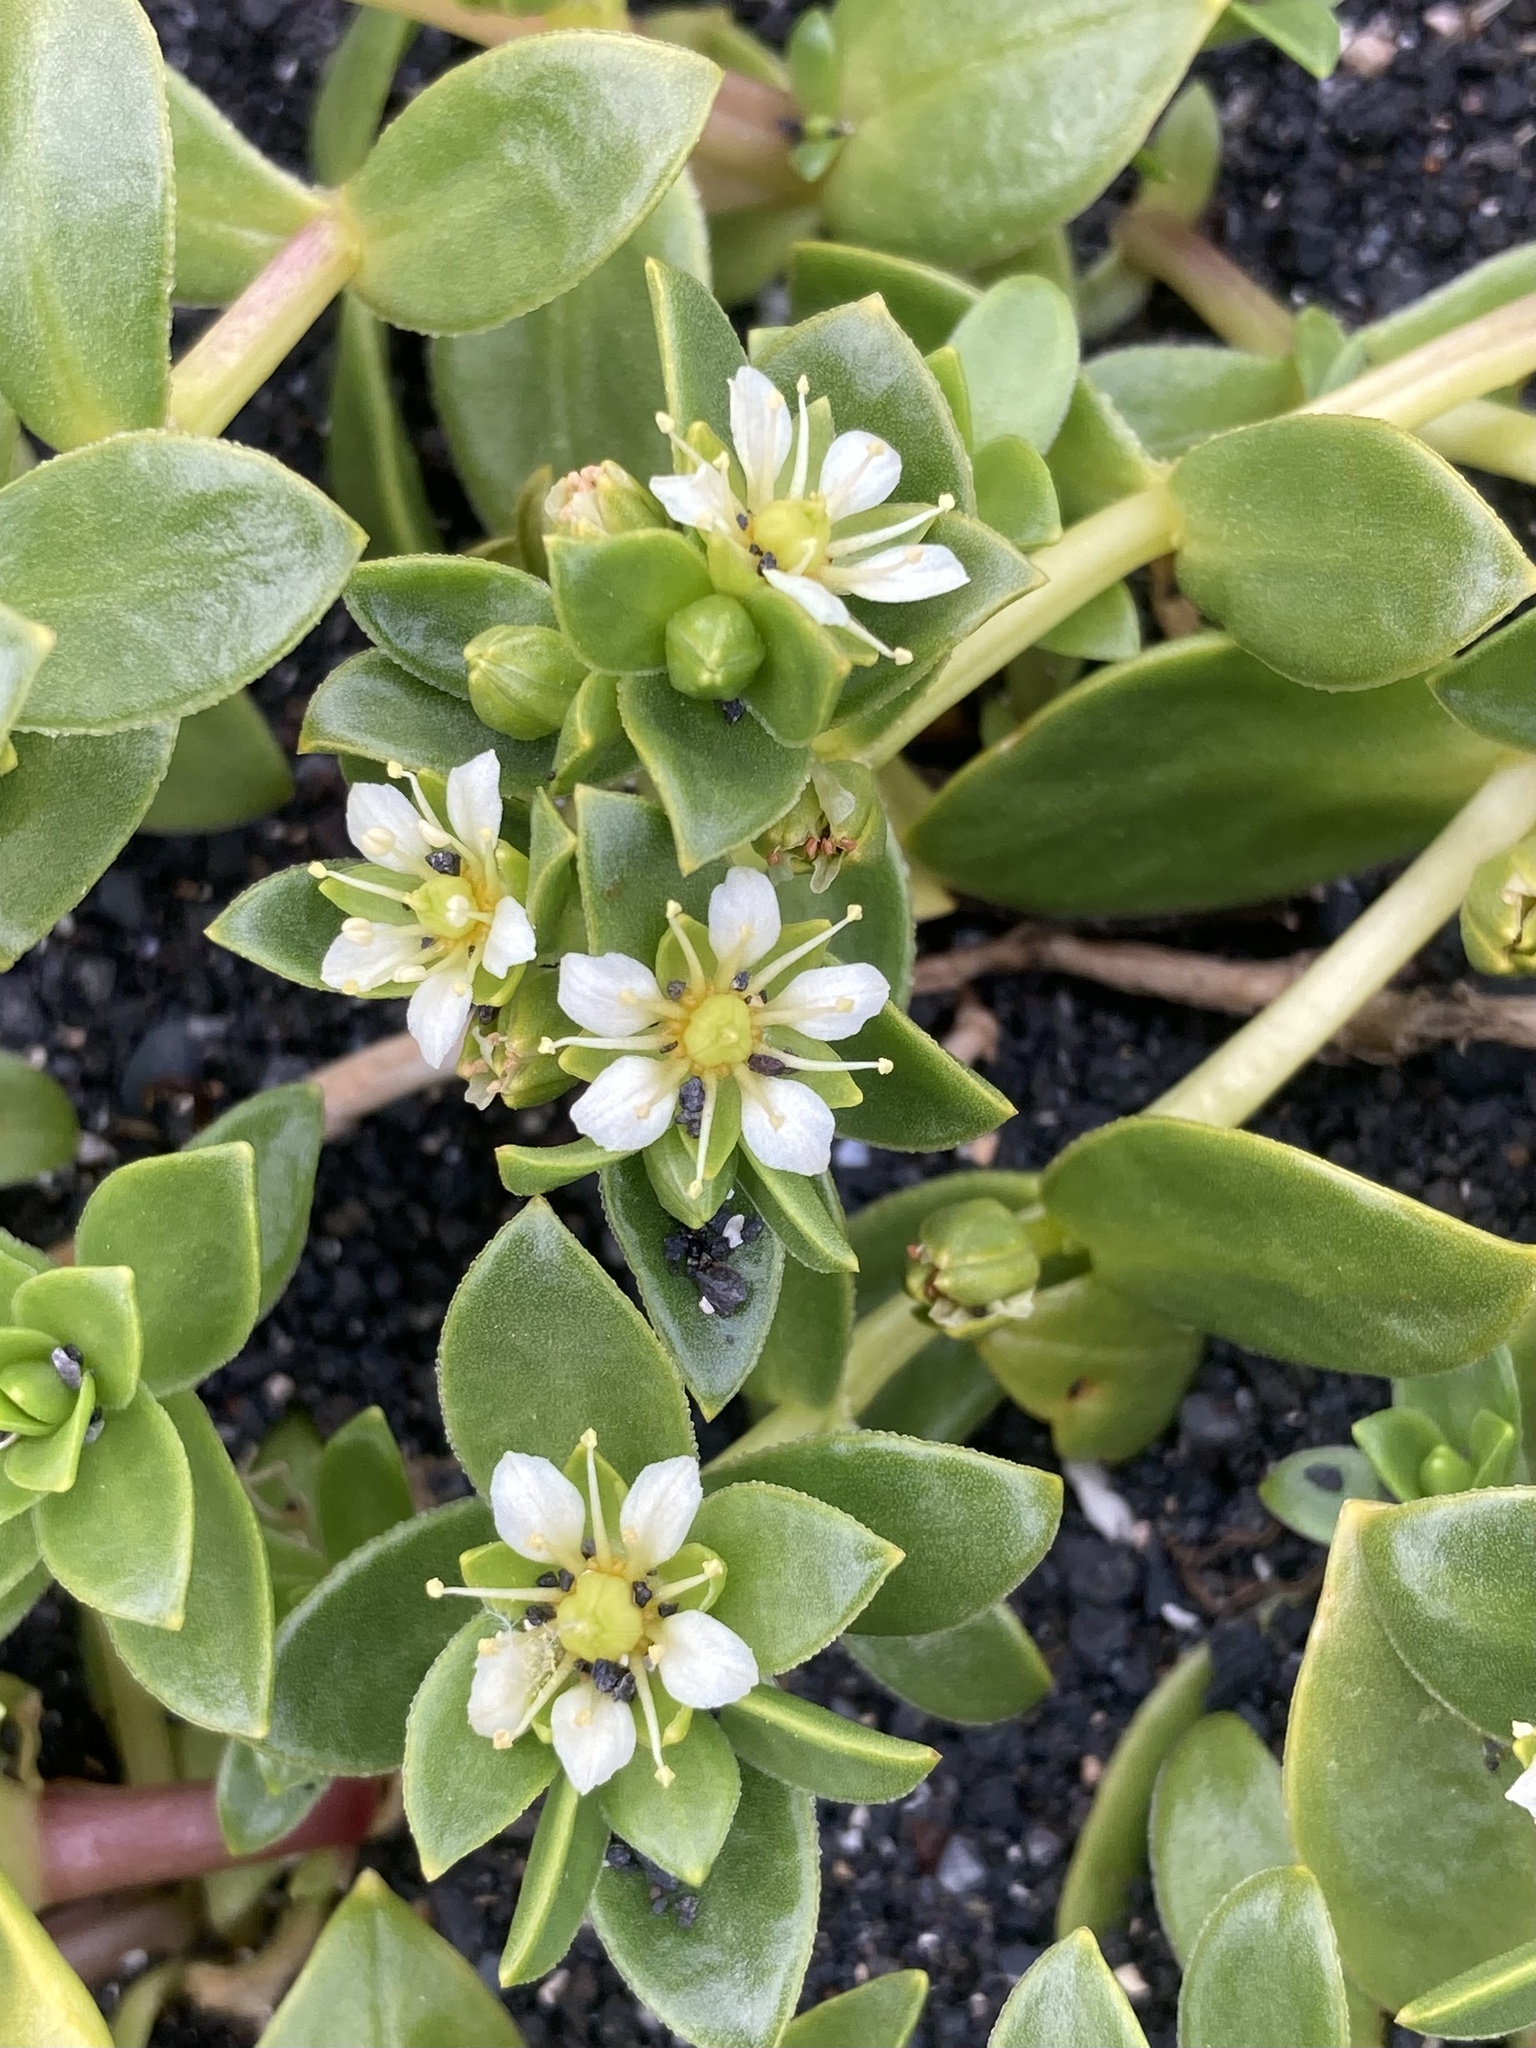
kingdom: Plantae
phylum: Tracheophyta
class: Magnoliopsida
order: Caryophyllales
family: Caryophyllaceae
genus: Honckenya
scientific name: Honckenya peploides
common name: Sea sandwort
